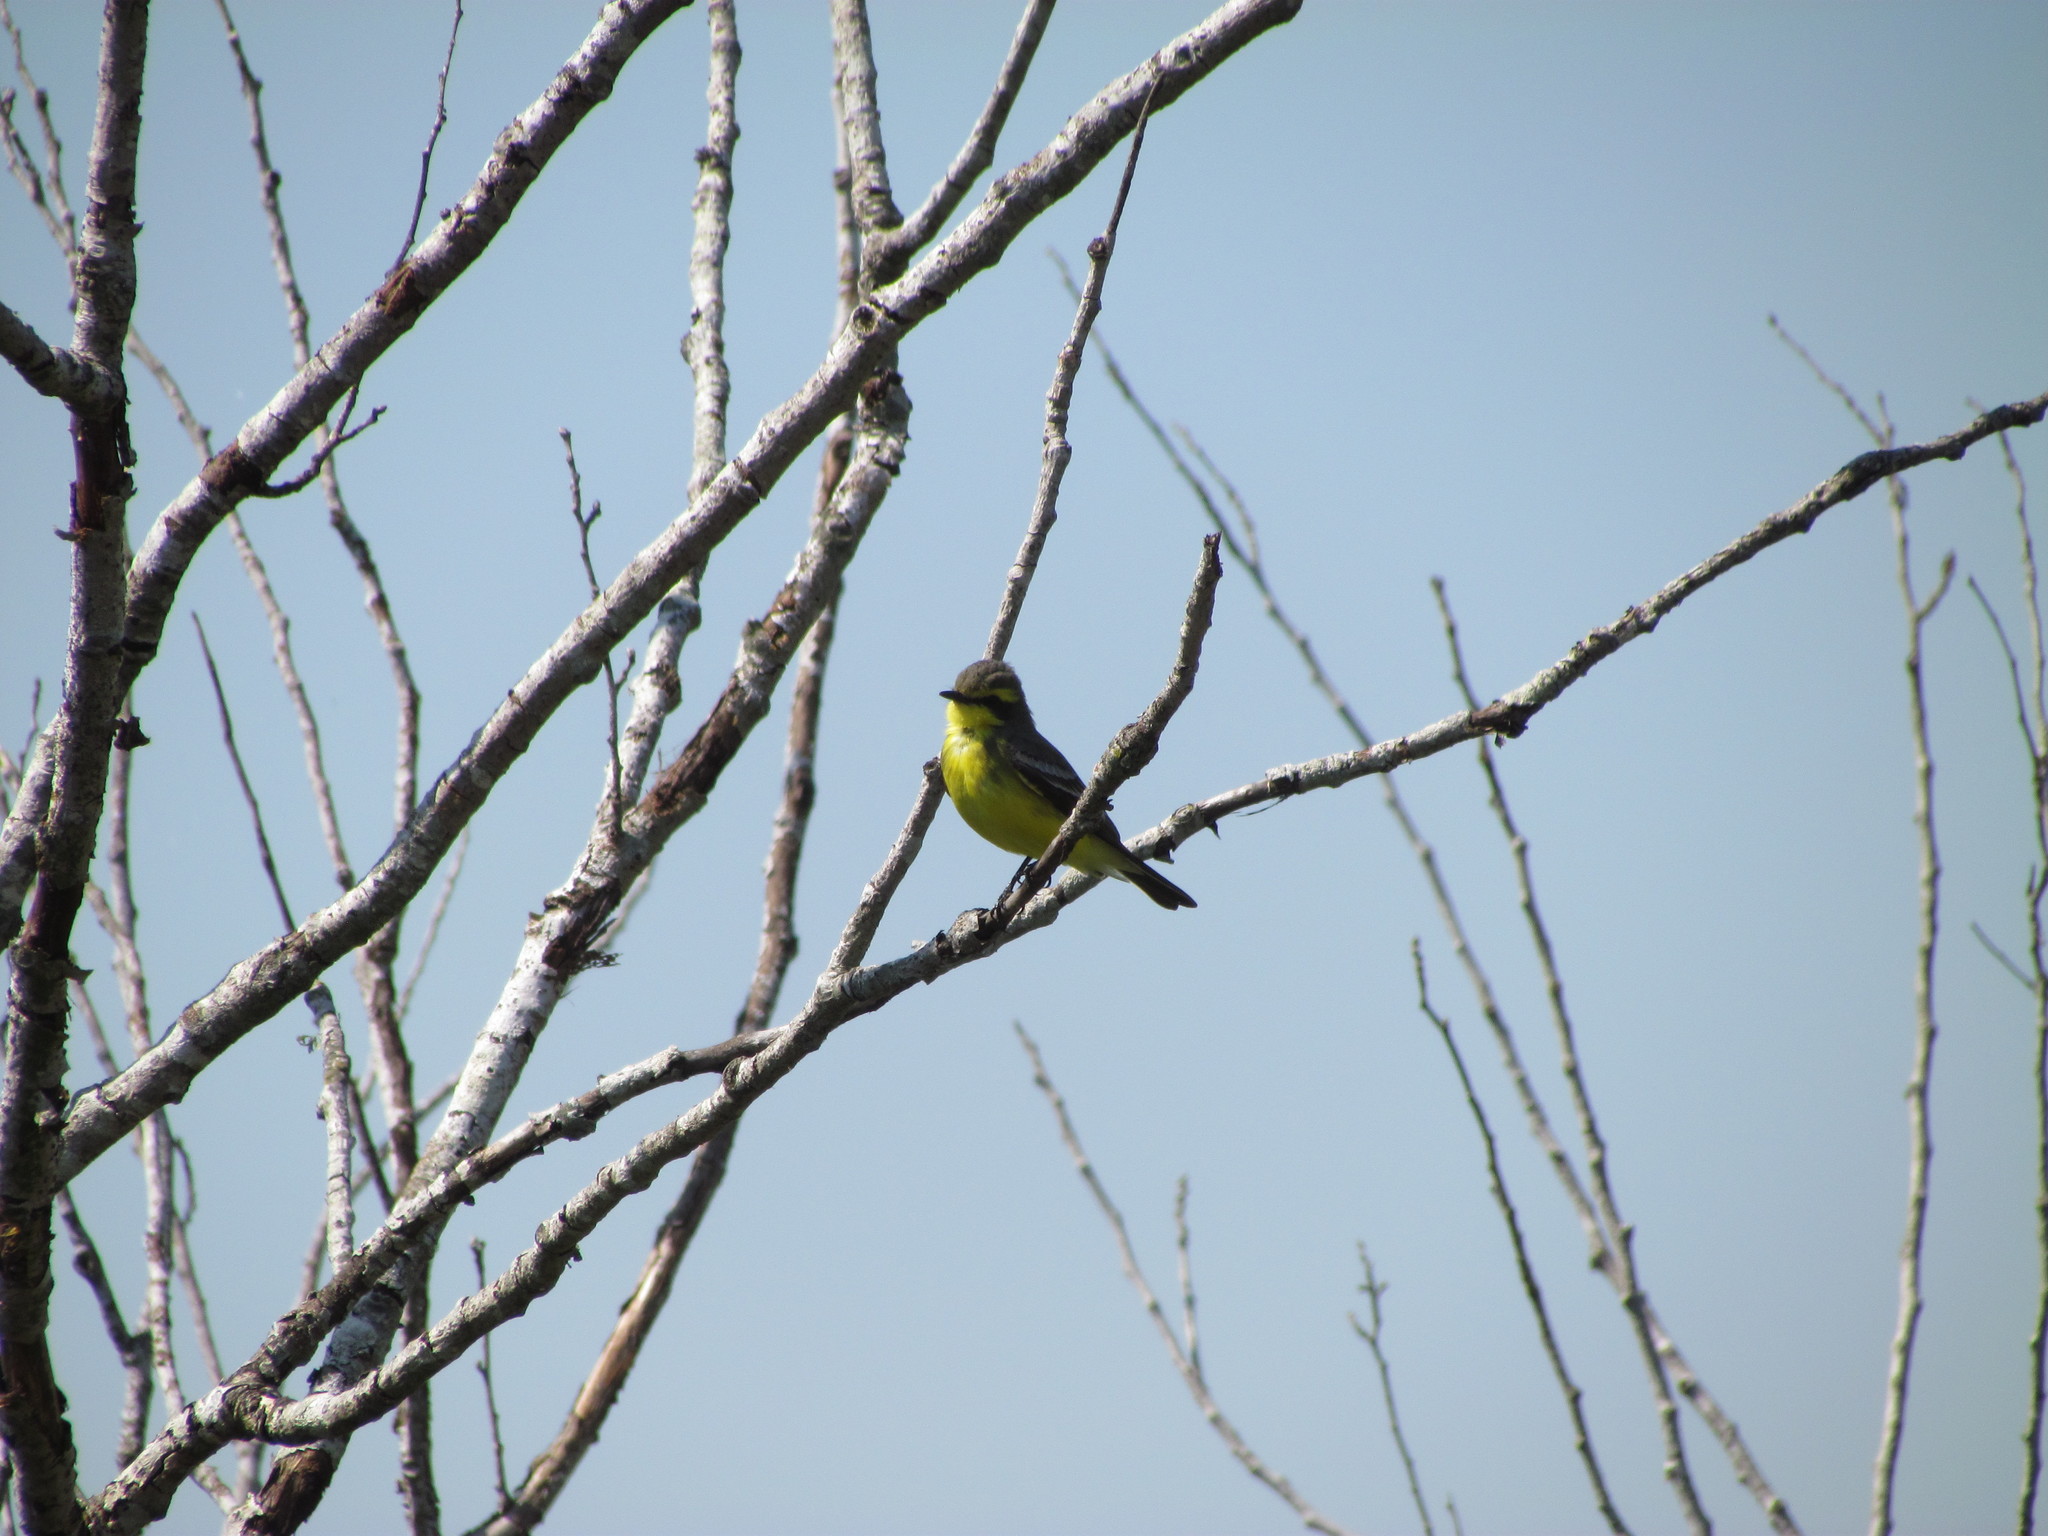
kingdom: Animalia
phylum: Chordata
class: Aves
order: Passeriformes
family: Tyrannidae
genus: Satrapa
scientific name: Satrapa icterophrys
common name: Yellow-browed tyrant
